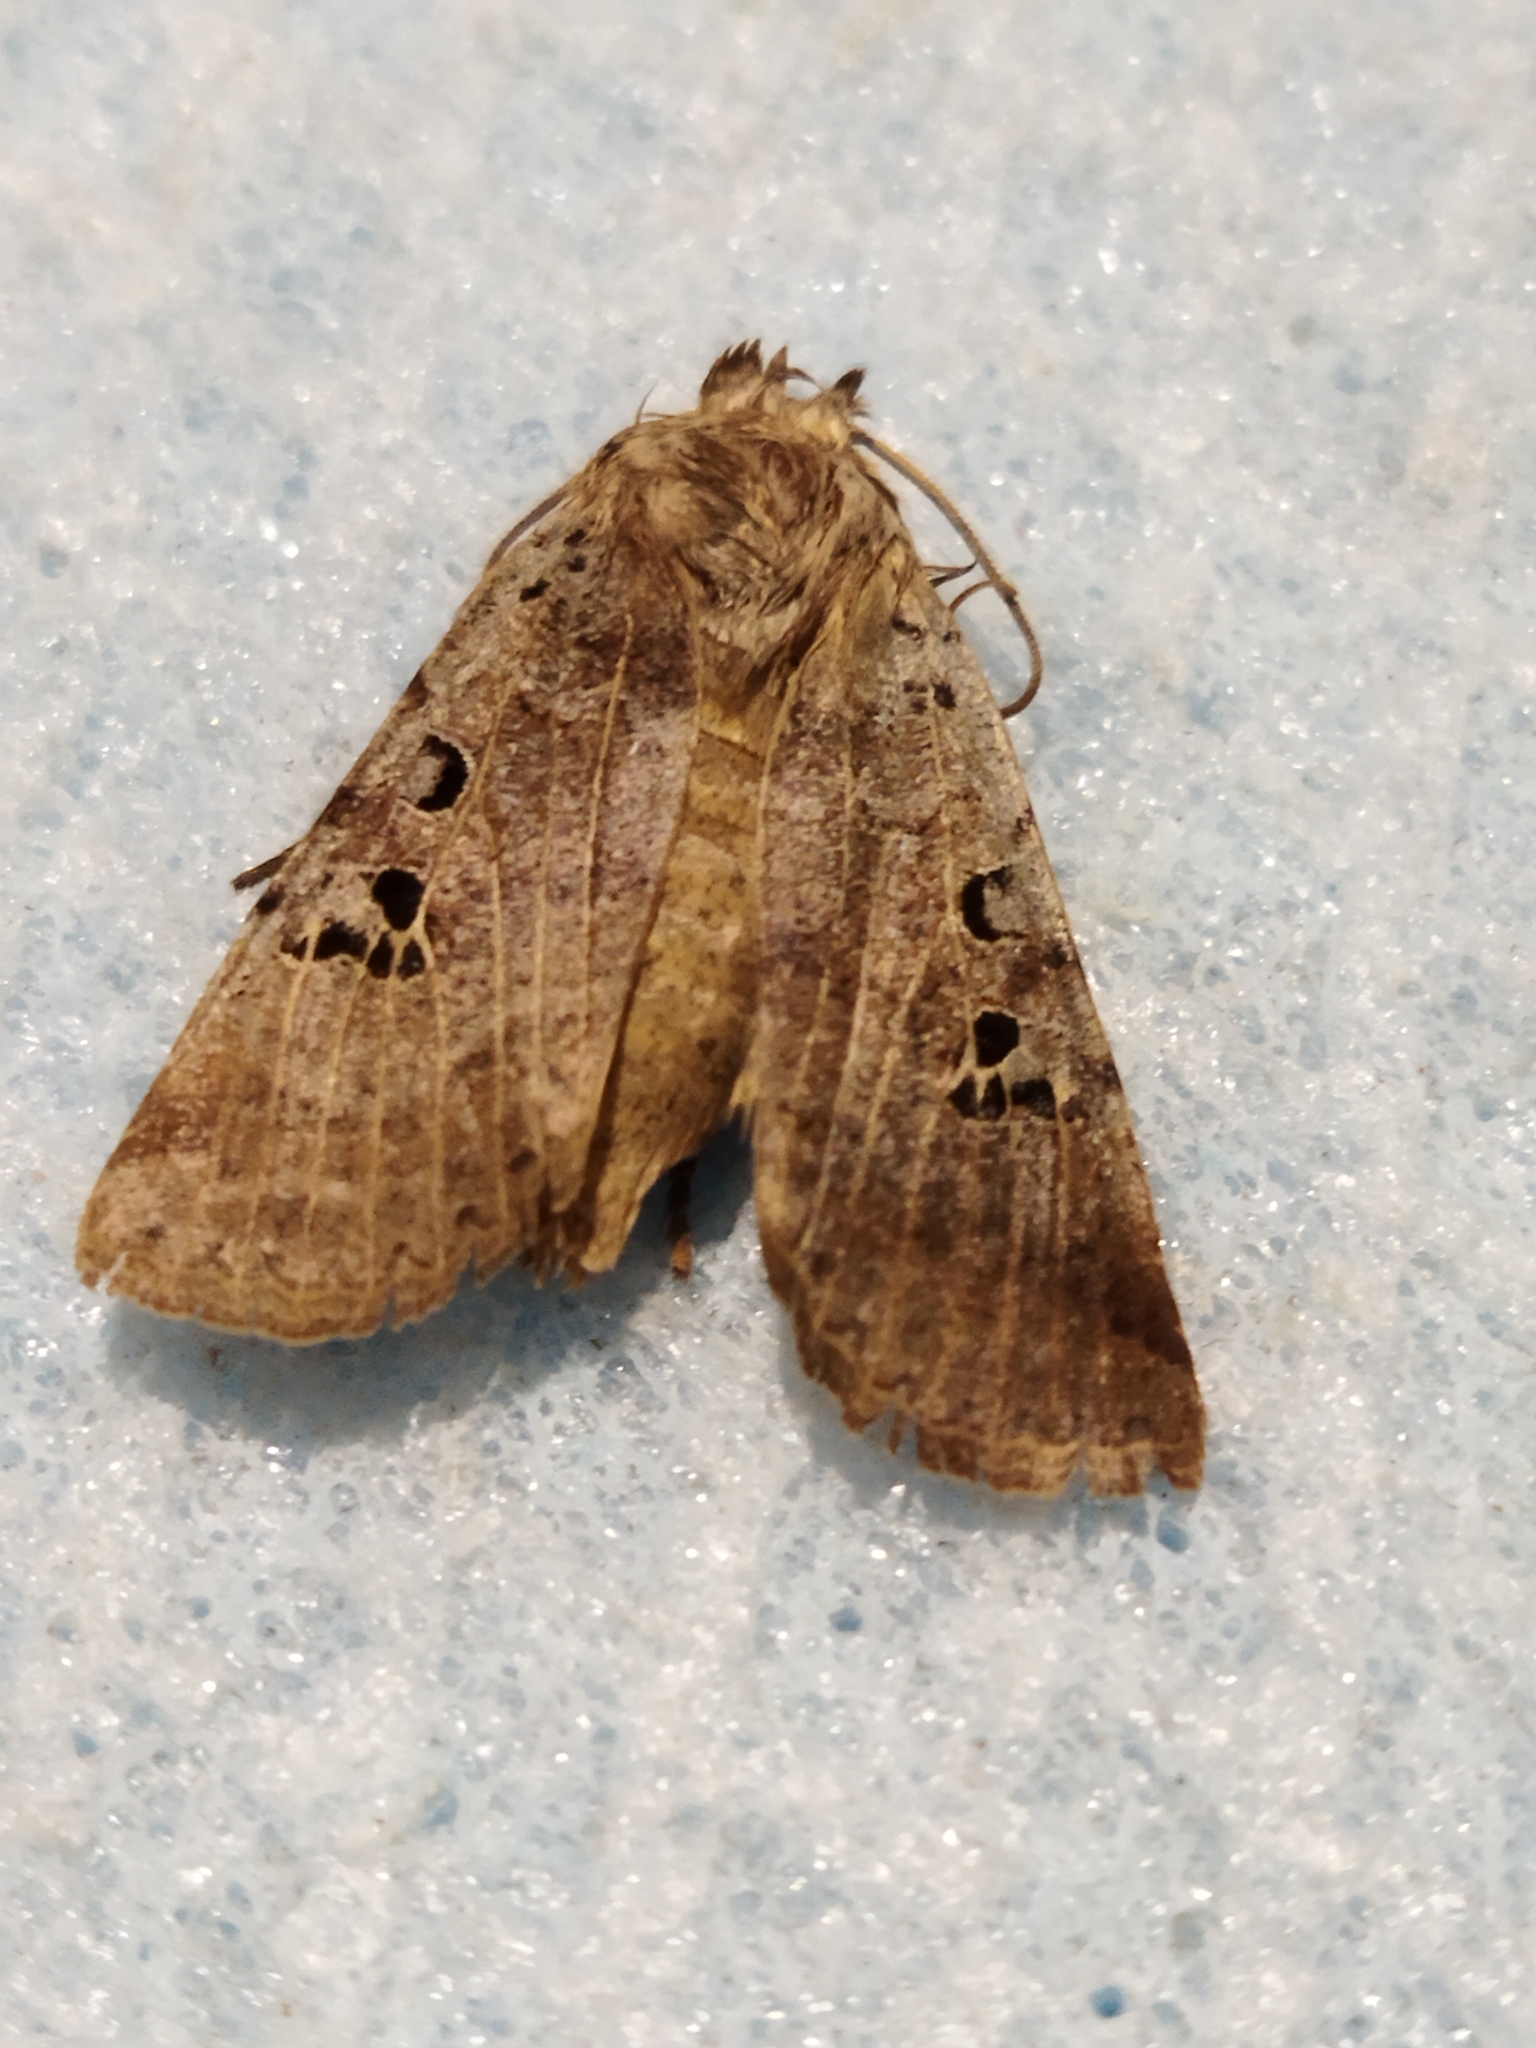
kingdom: Animalia
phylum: Arthropoda
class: Insecta
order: Lepidoptera
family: Noctuidae
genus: Conistra
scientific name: Conistra rubiginosa
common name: Black-spotted chestnut
